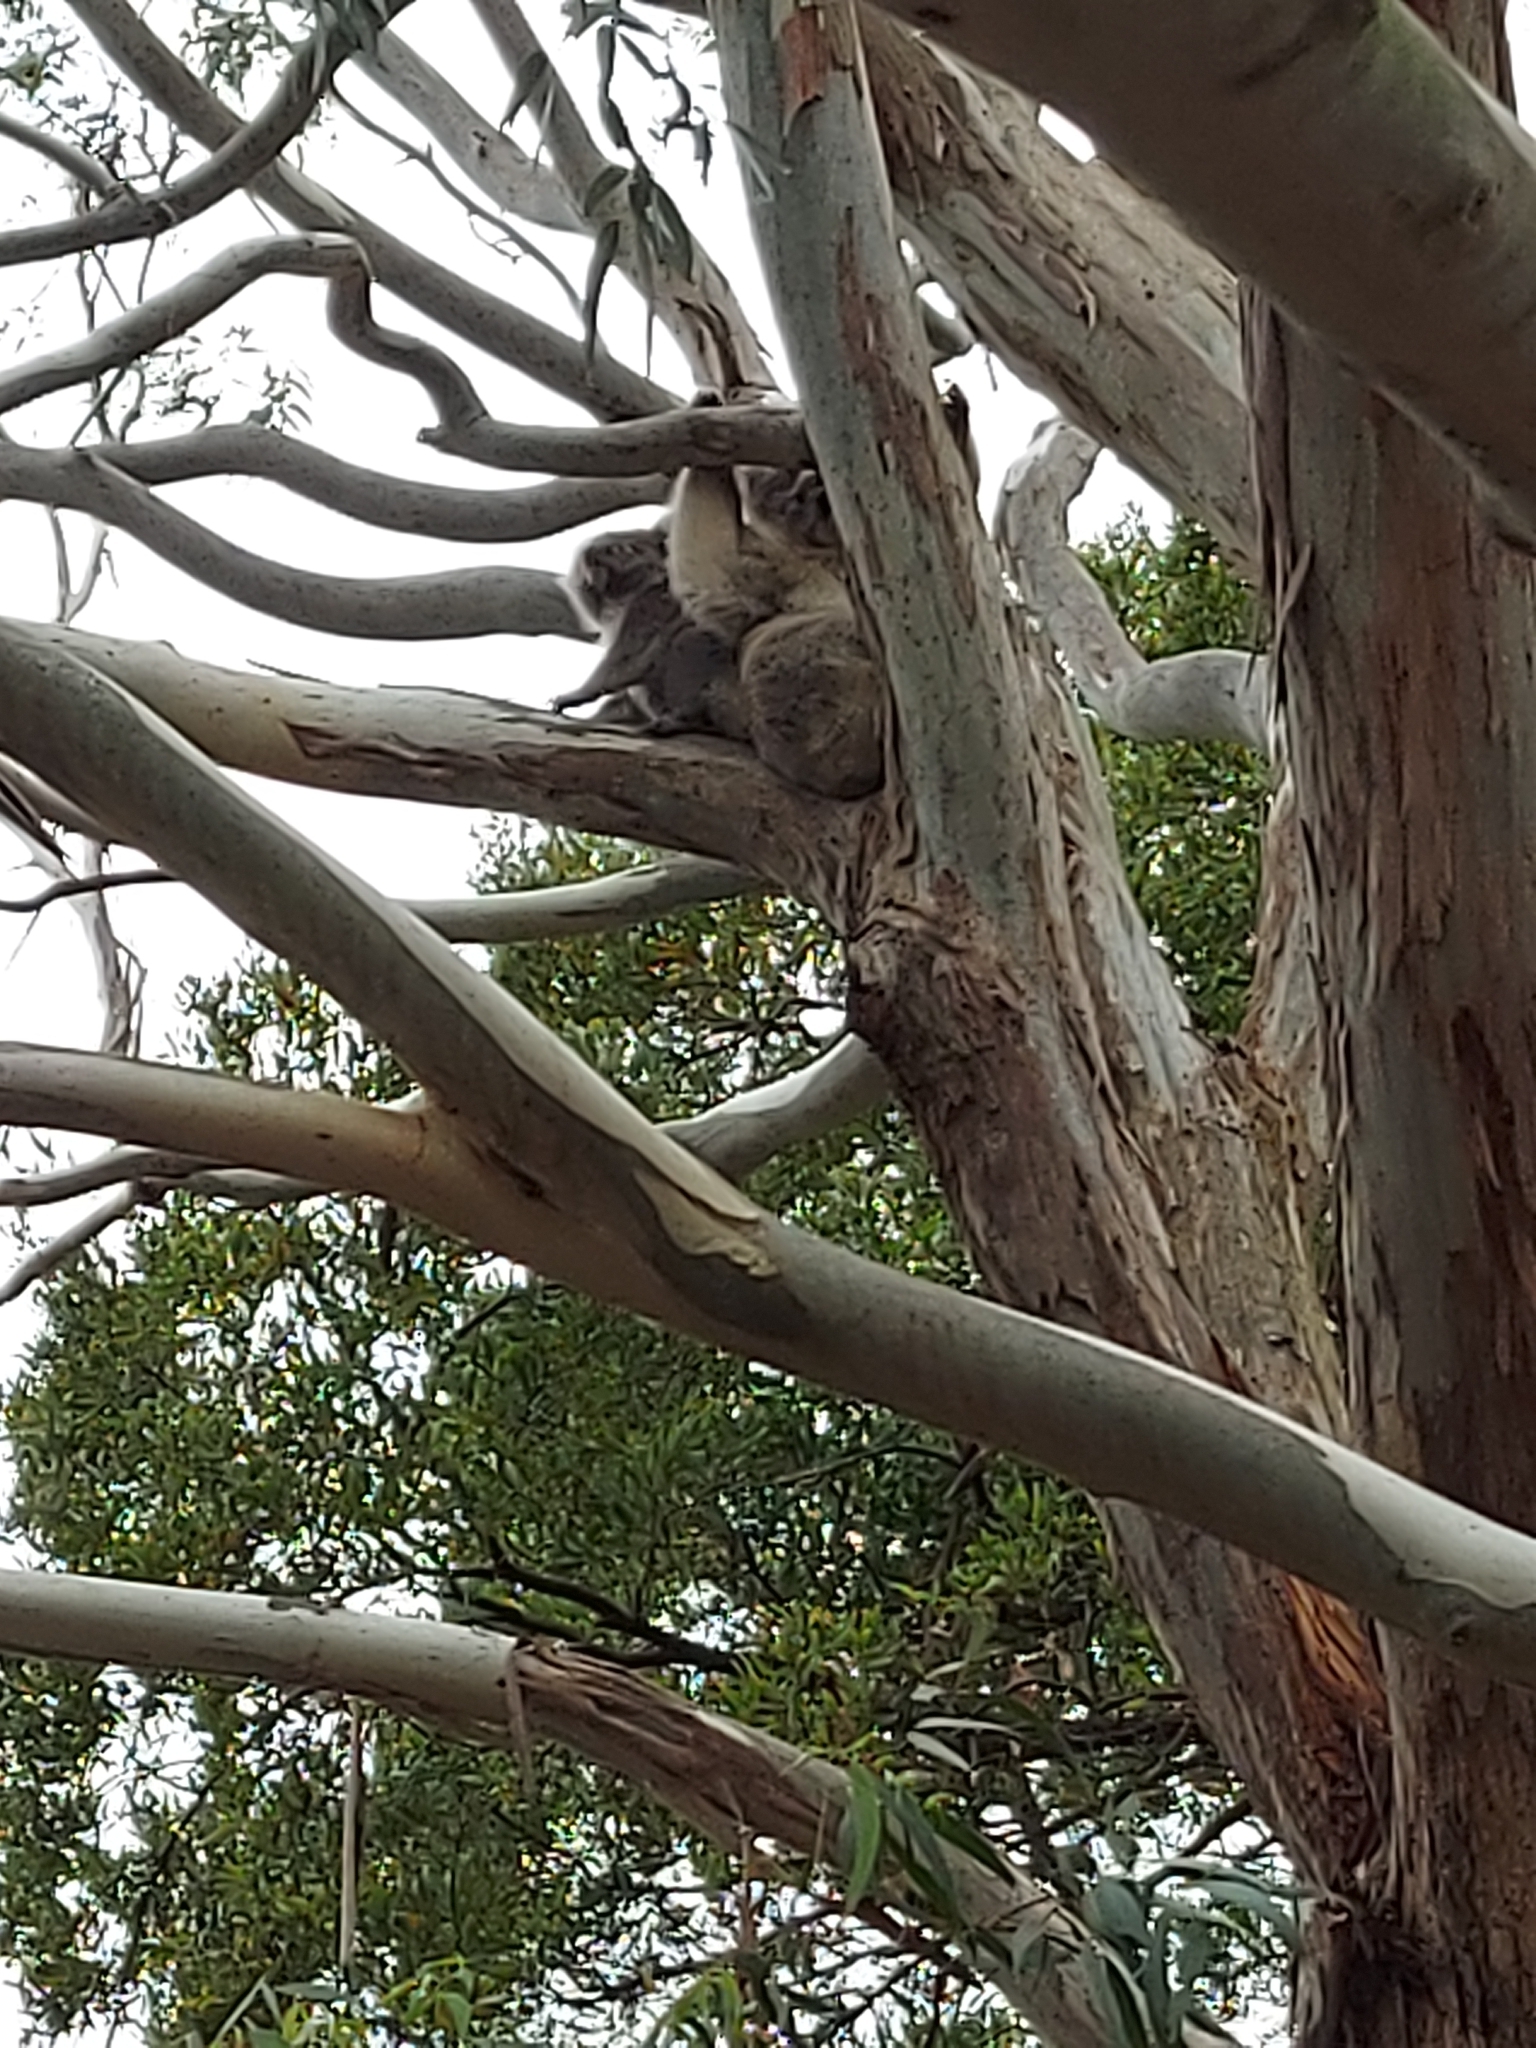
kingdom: Animalia
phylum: Chordata
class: Mammalia
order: Diprotodontia
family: Phascolarctidae
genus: Phascolarctos
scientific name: Phascolarctos cinereus
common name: Koala
